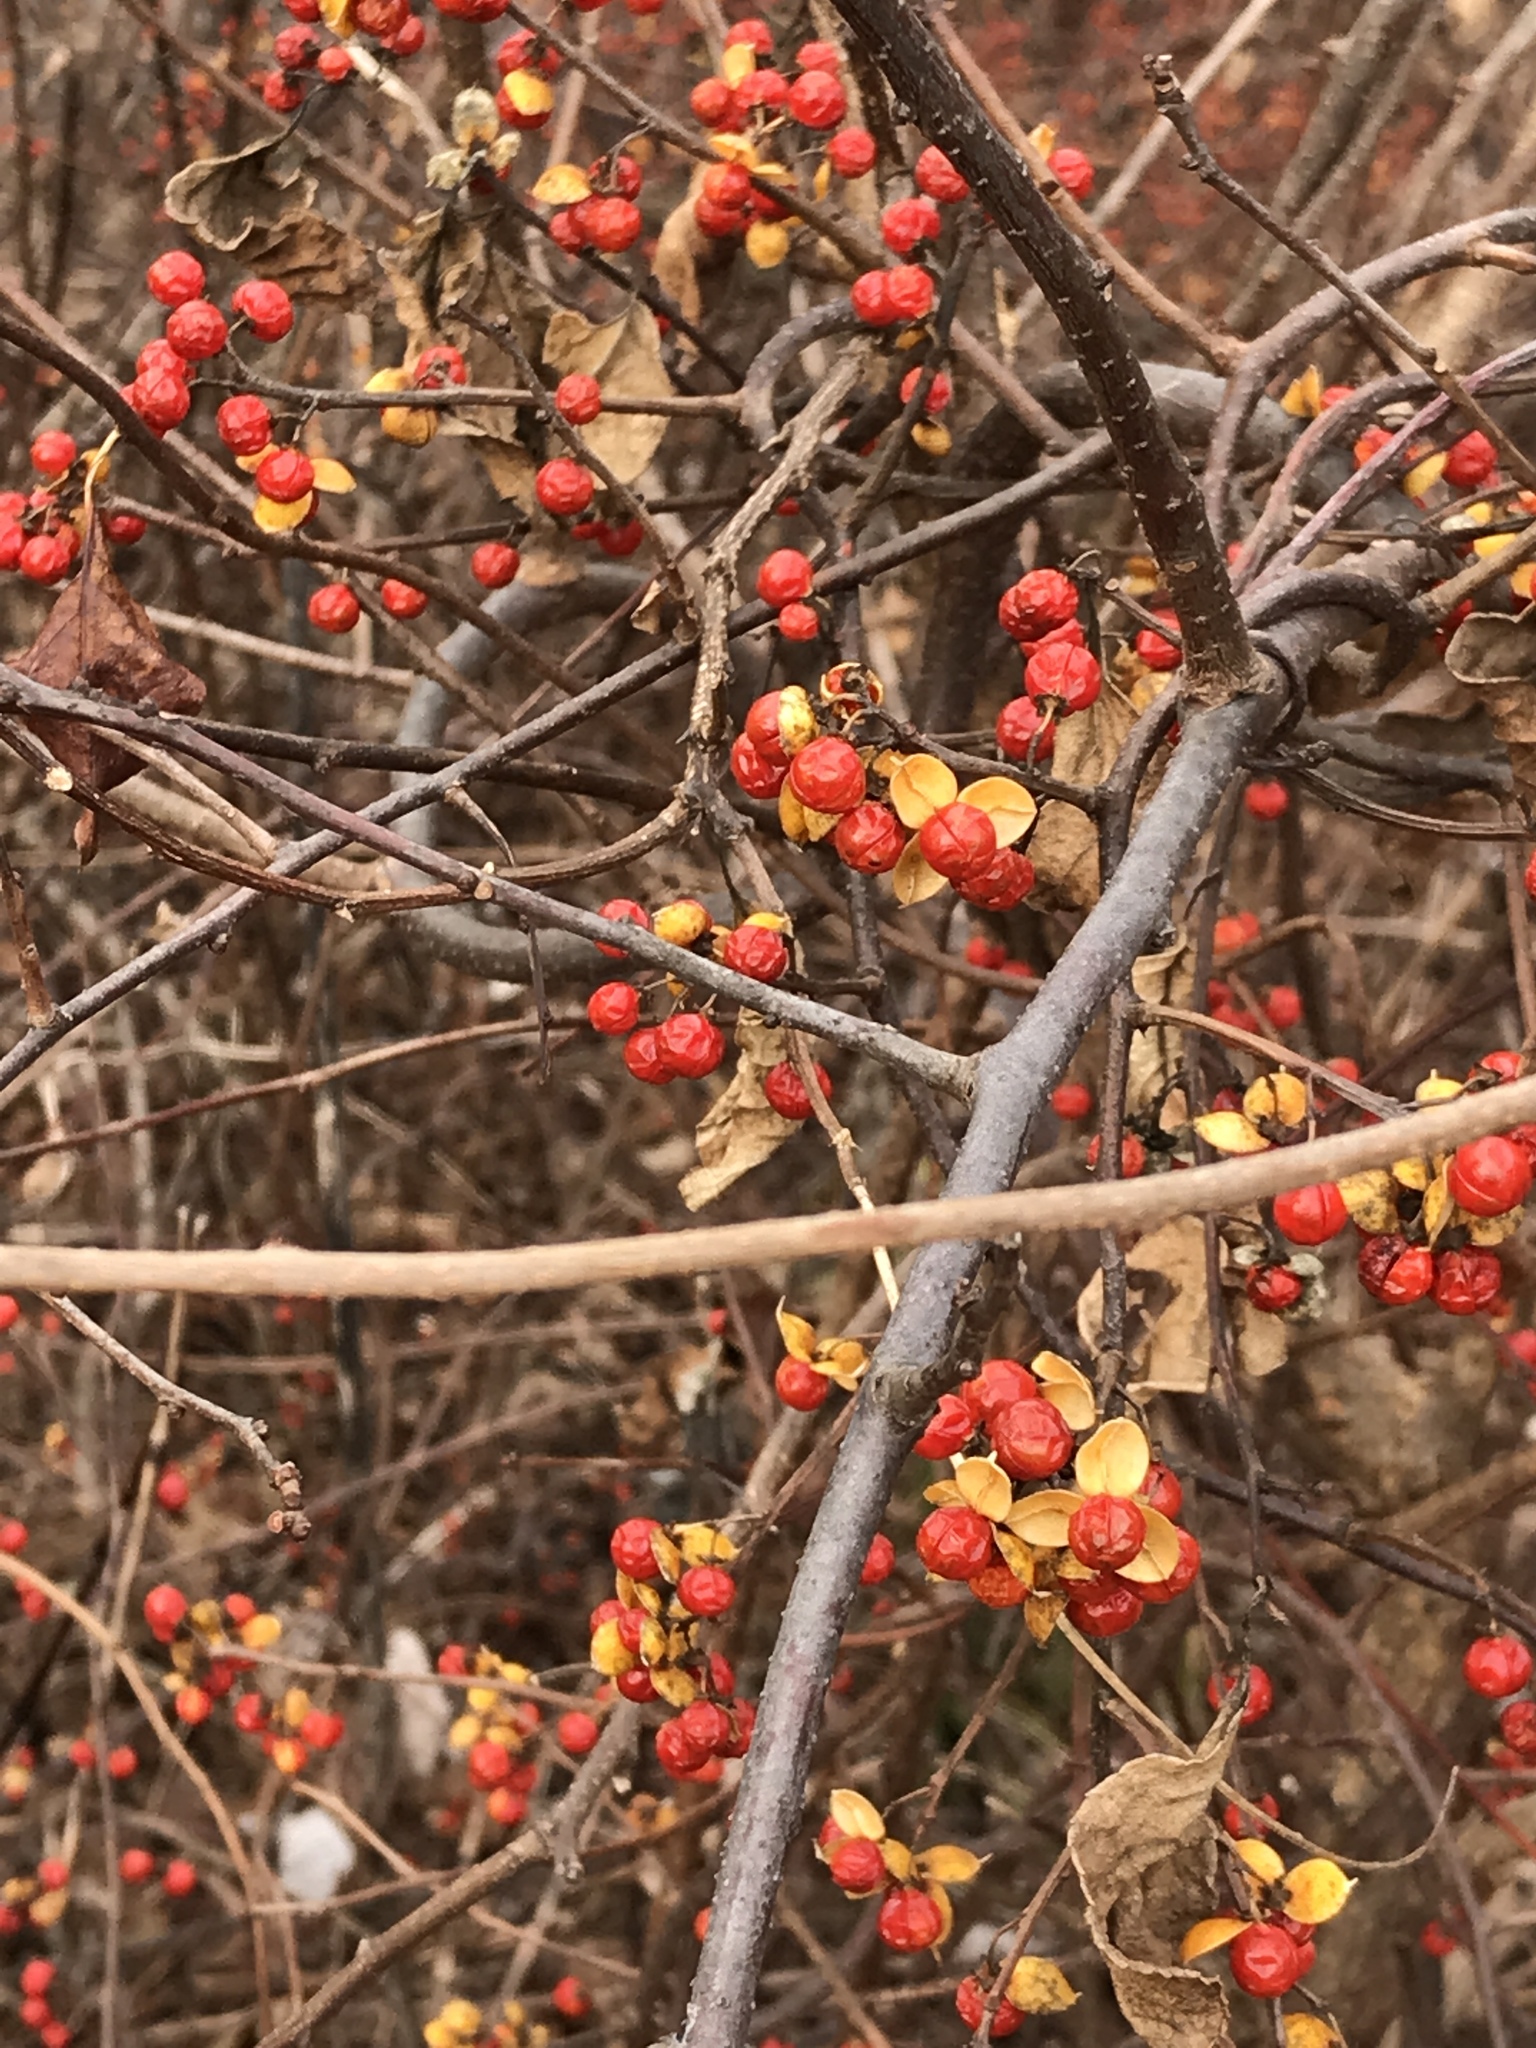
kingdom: Plantae
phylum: Tracheophyta
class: Magnoliopsida
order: Celastrales
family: Celastraceae
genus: Celastrus
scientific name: Celastrus orbiculatus
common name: Oriental bittersweet
